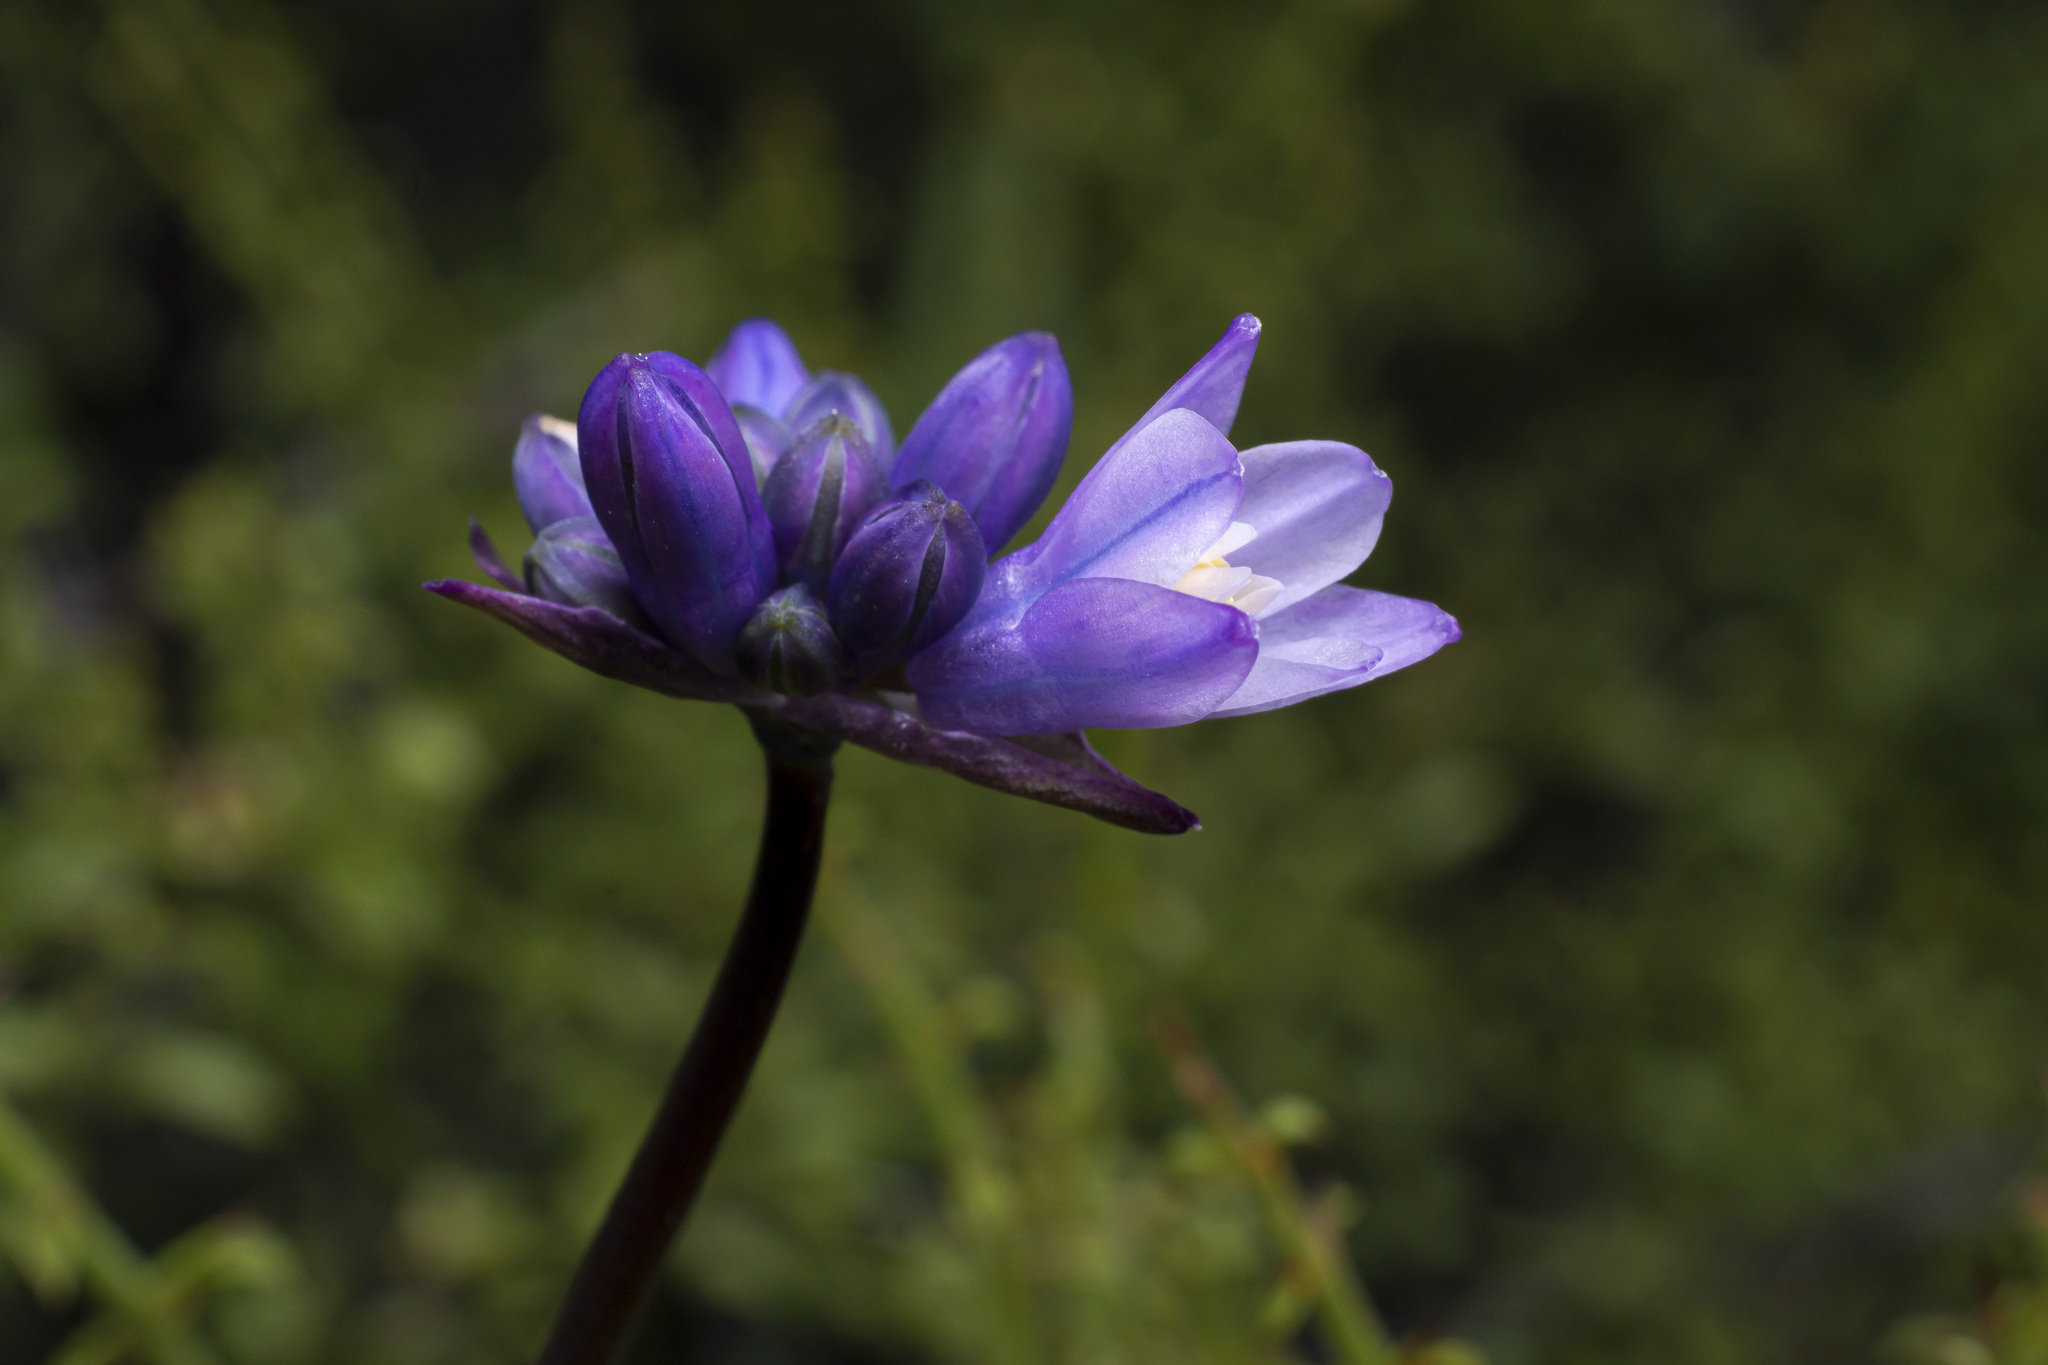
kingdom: Plantae
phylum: Tracheophyta
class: Liliopsida
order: Asparagales
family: Asparagaceae
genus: Dipterostemon
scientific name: Dipterostemon capitatus
